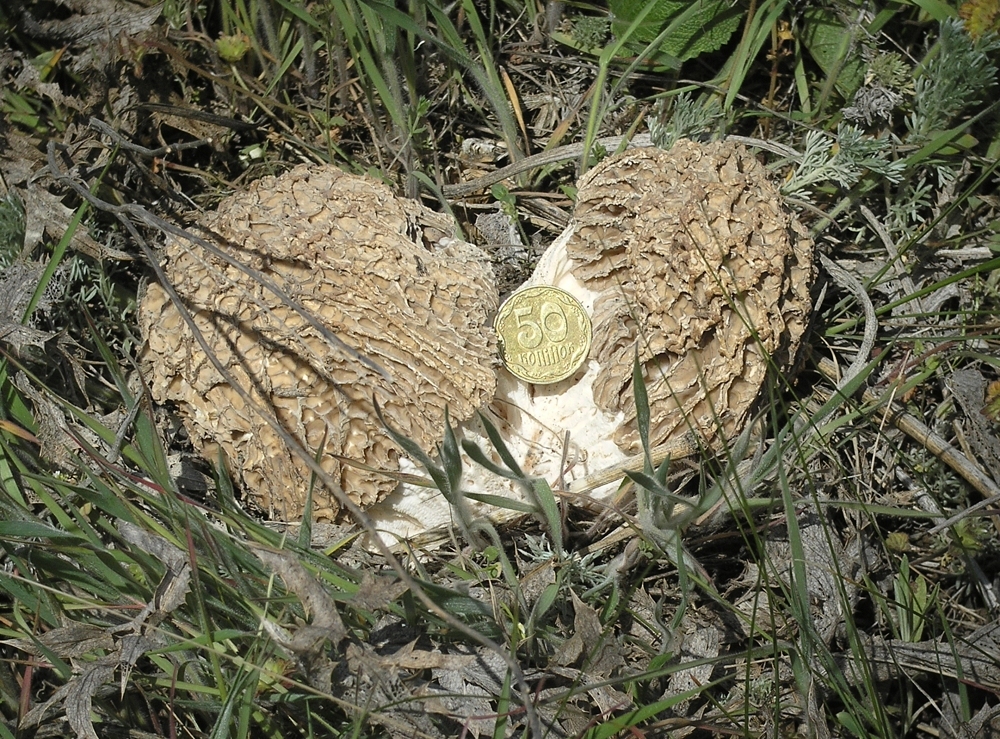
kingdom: Fungi
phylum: Ascomycota
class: Pezizomycetes
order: Pezizales
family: Morchellaceae
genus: Morchella
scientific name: Morchella steppicola
